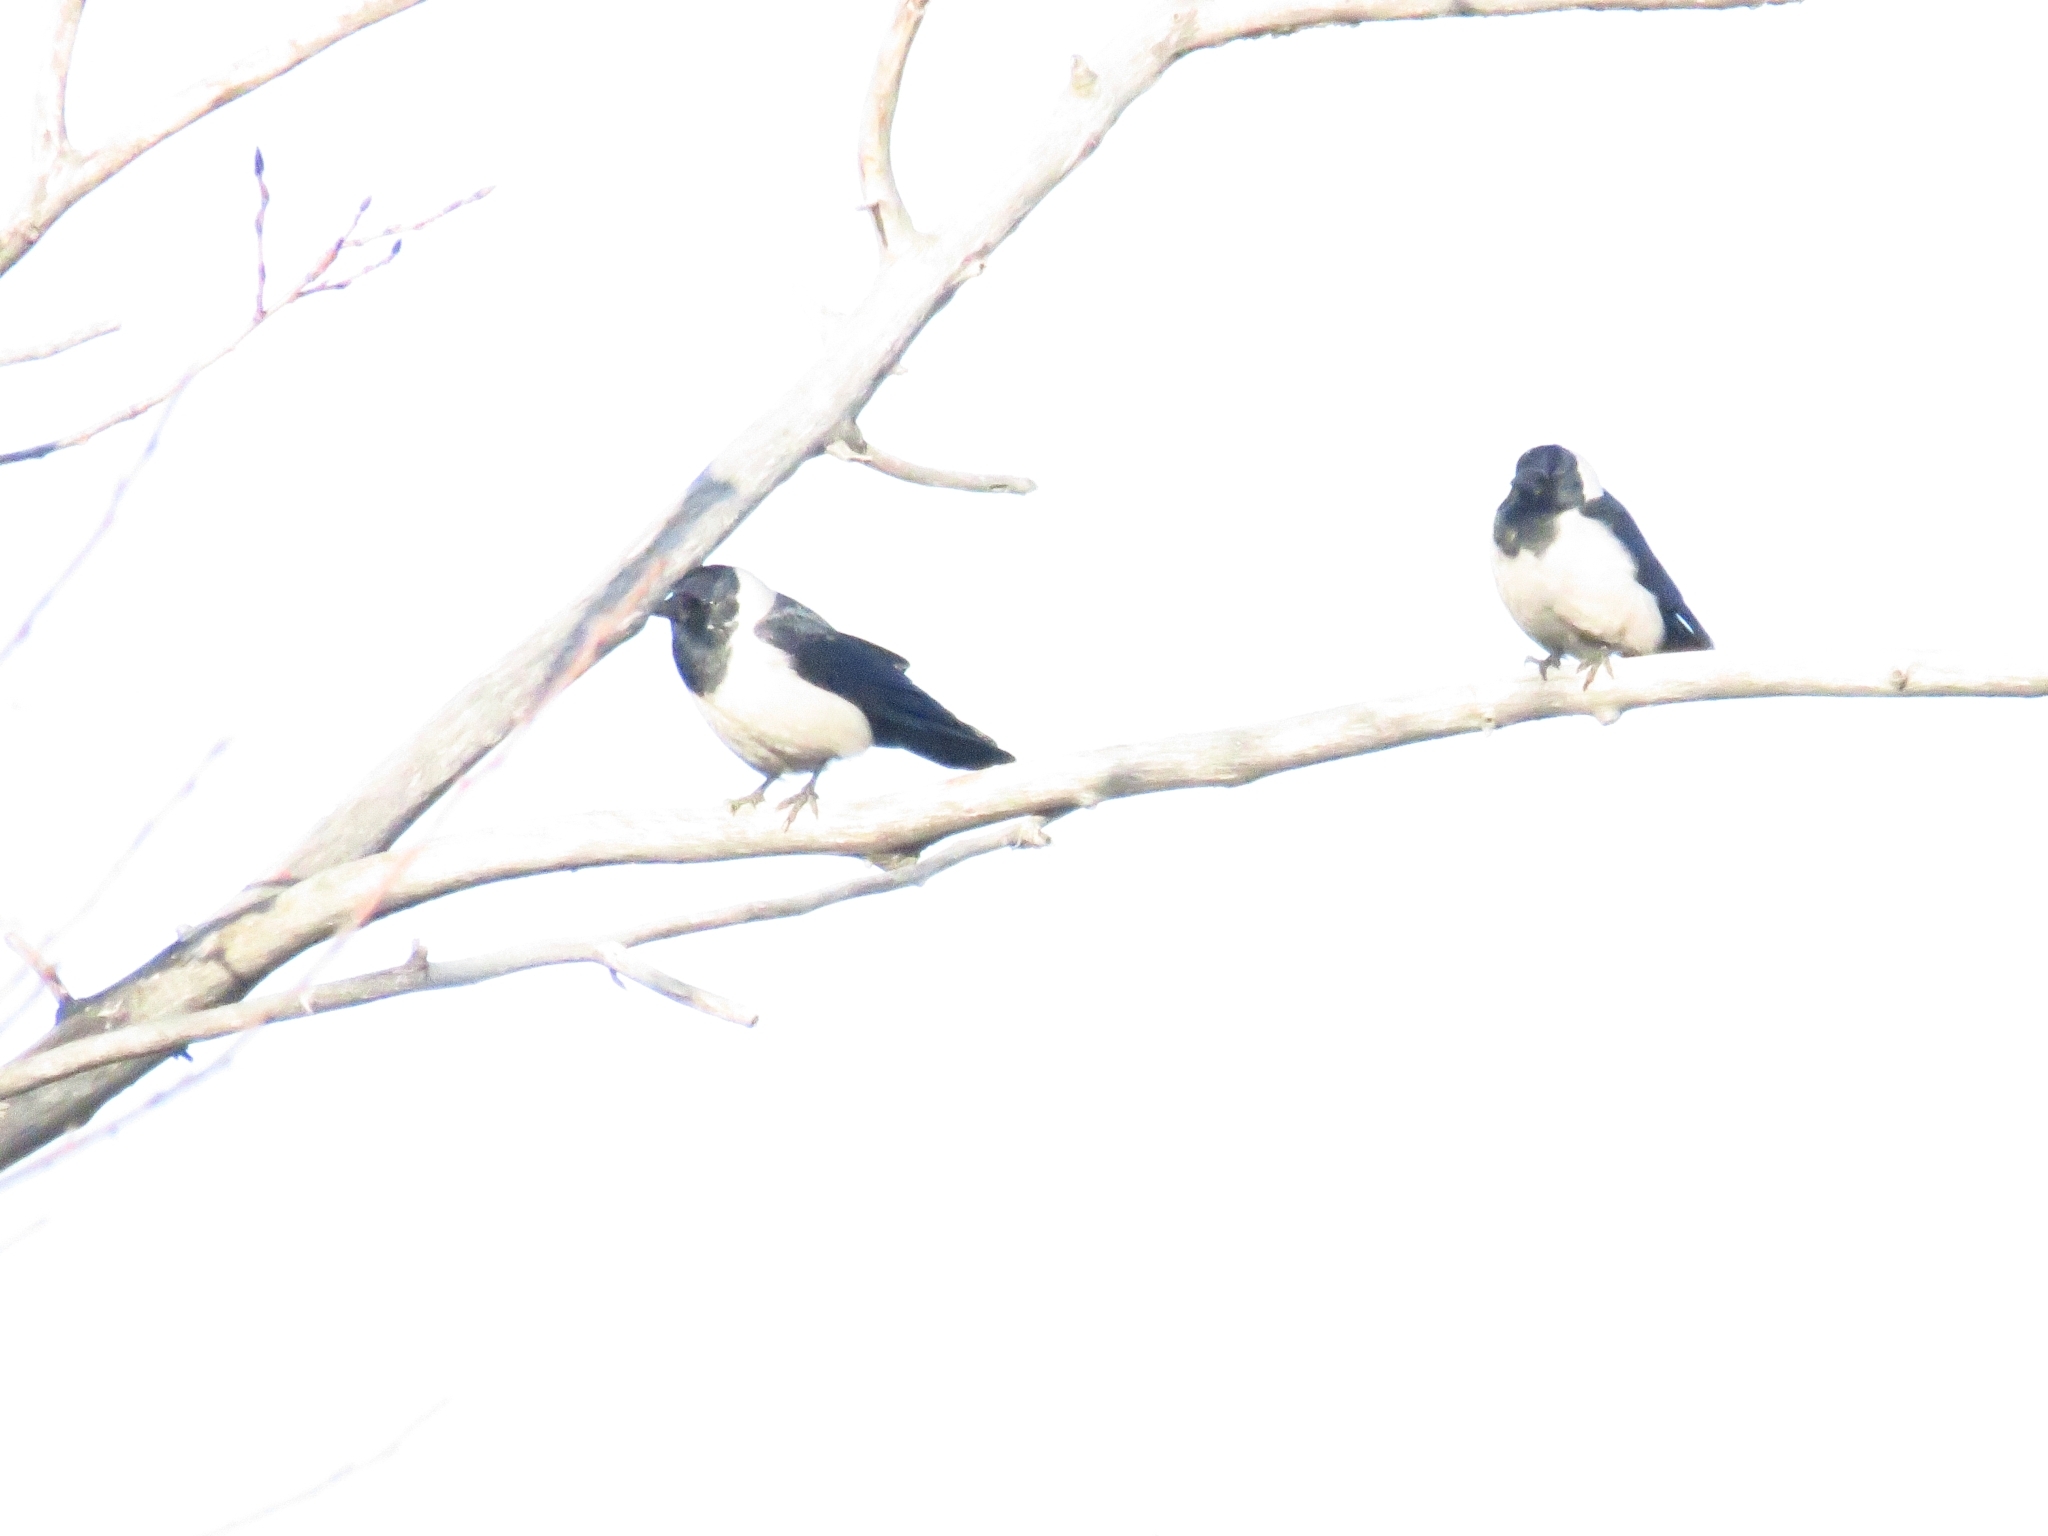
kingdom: Animalia
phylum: Chordata
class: Aves
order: Passeriformes
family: Corvidae
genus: Coloeus
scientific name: Coloeus dauuricus
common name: Daurian jackdaw
